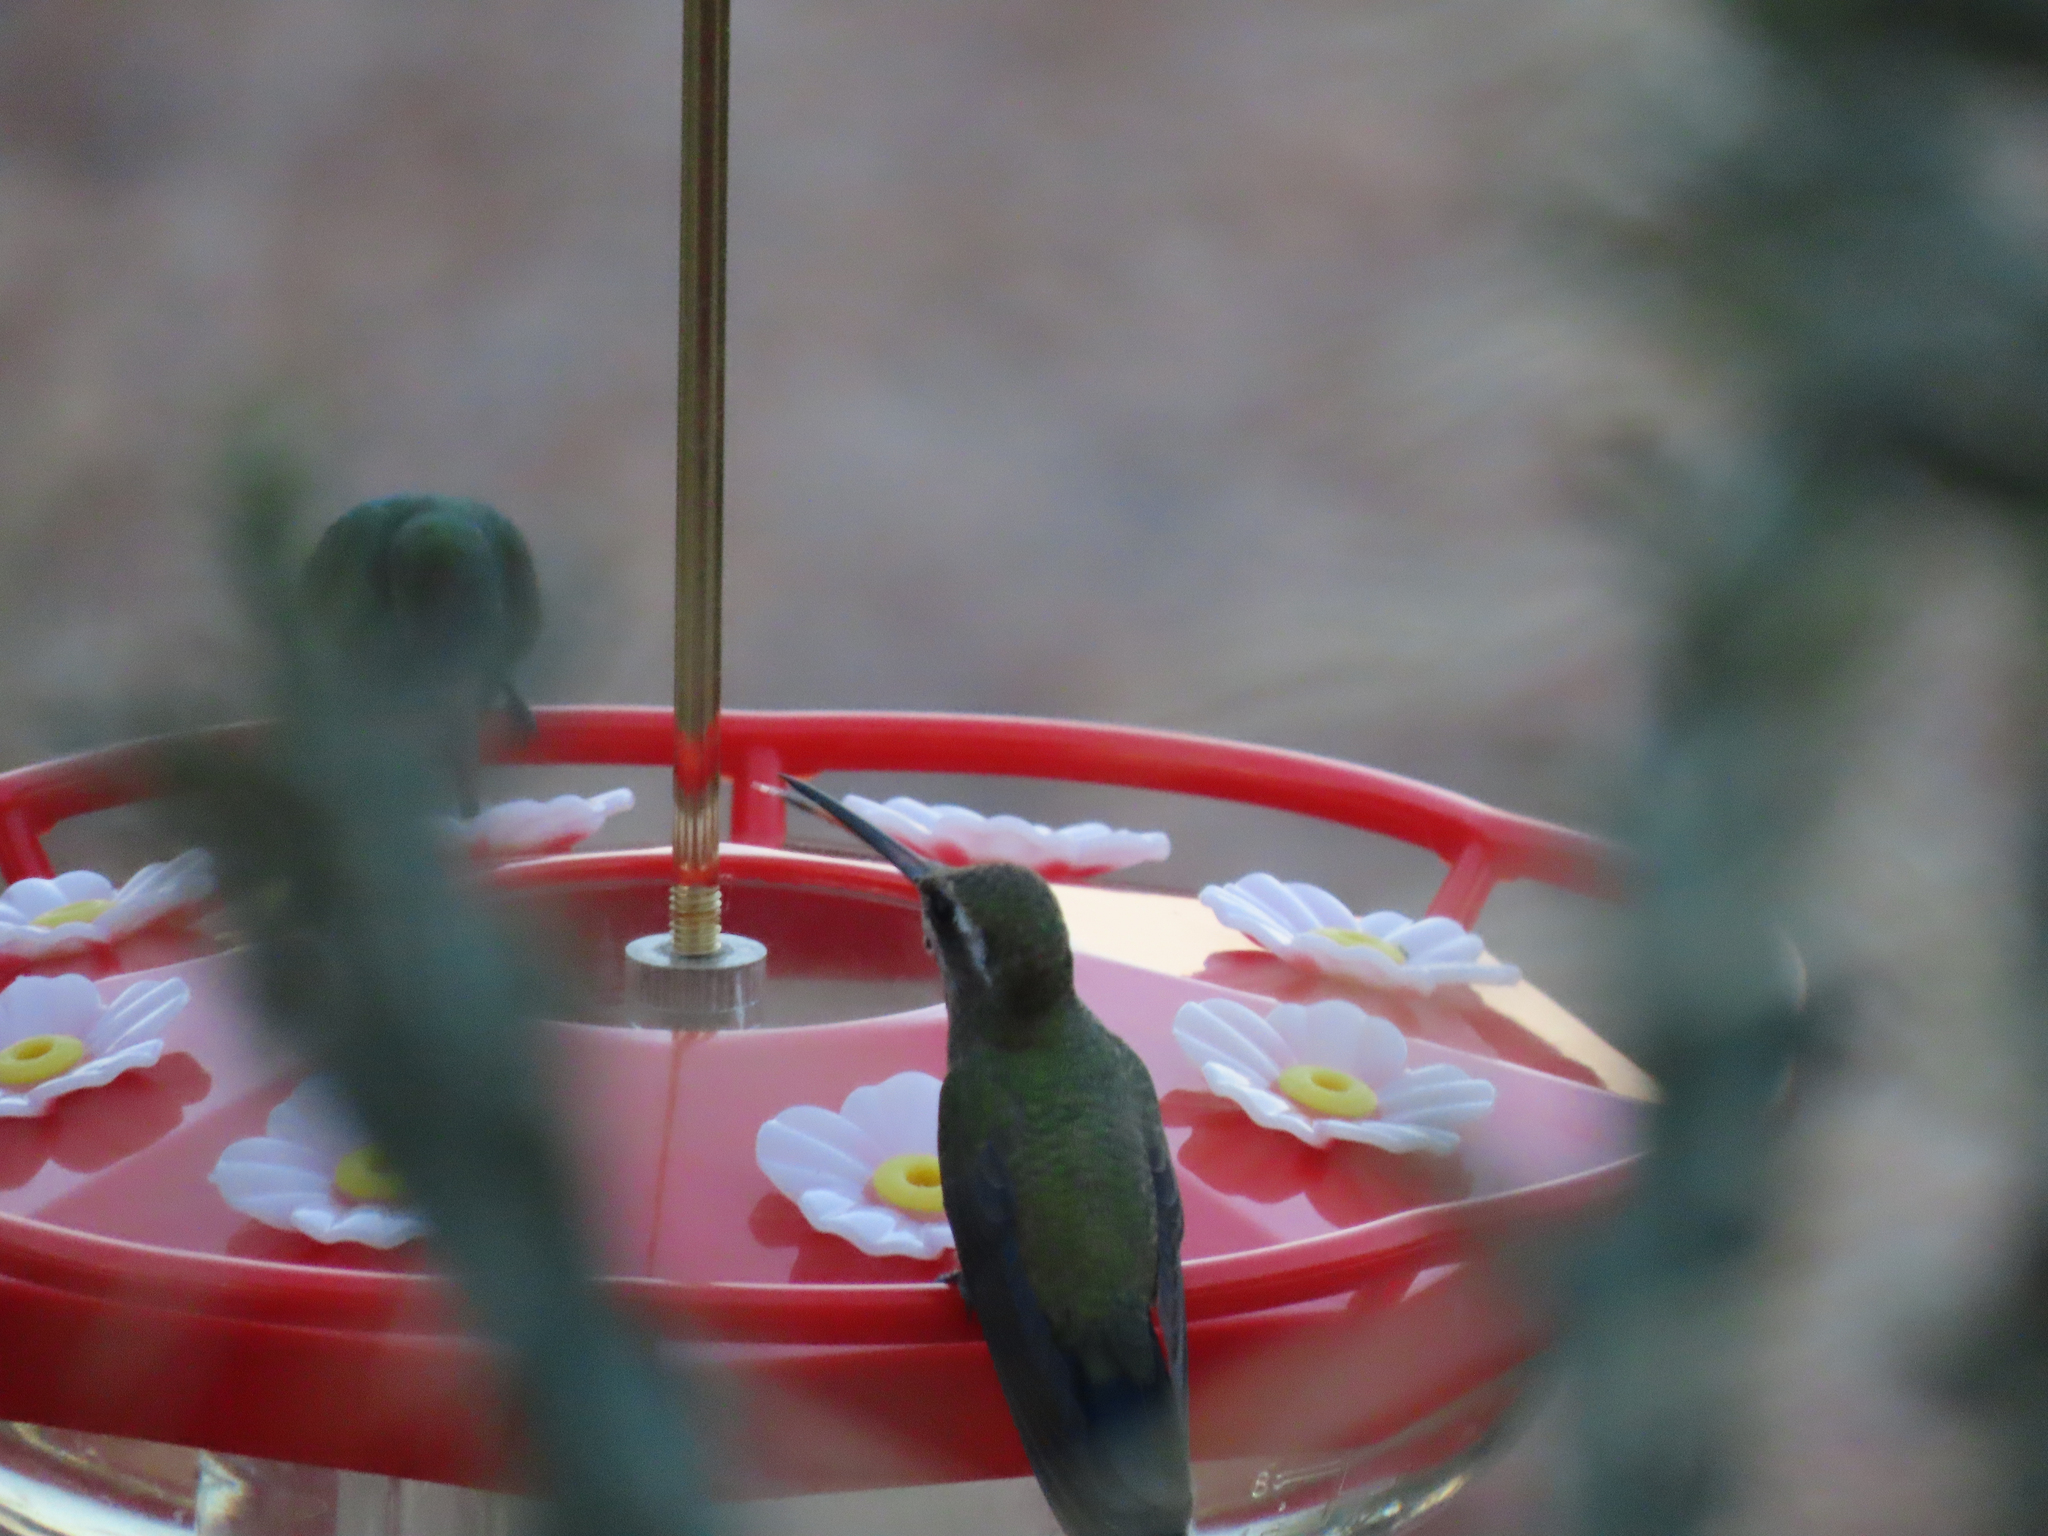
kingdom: Animalia
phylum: Chordata
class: Aves
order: Apodiformes
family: Trochilidae
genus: Cynanthus
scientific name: Cynanthus latirostris
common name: Broad-billed hummingbird
